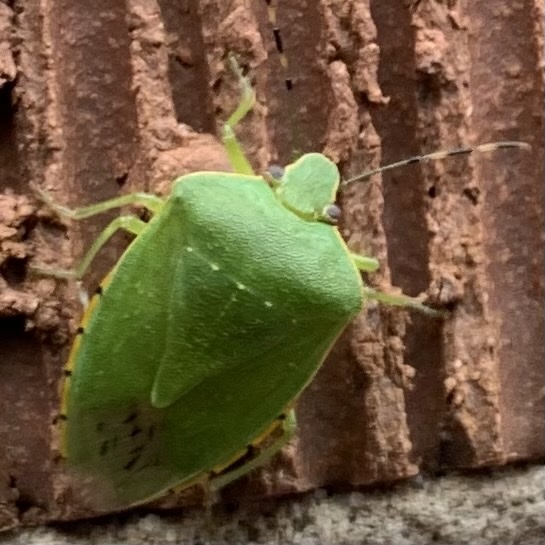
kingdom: Animalia
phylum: Arthropoda
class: Insecta
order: Hemiptera
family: Pentatomidae
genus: Chinavia
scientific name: Chinavia hilaris
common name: Green stink bug
